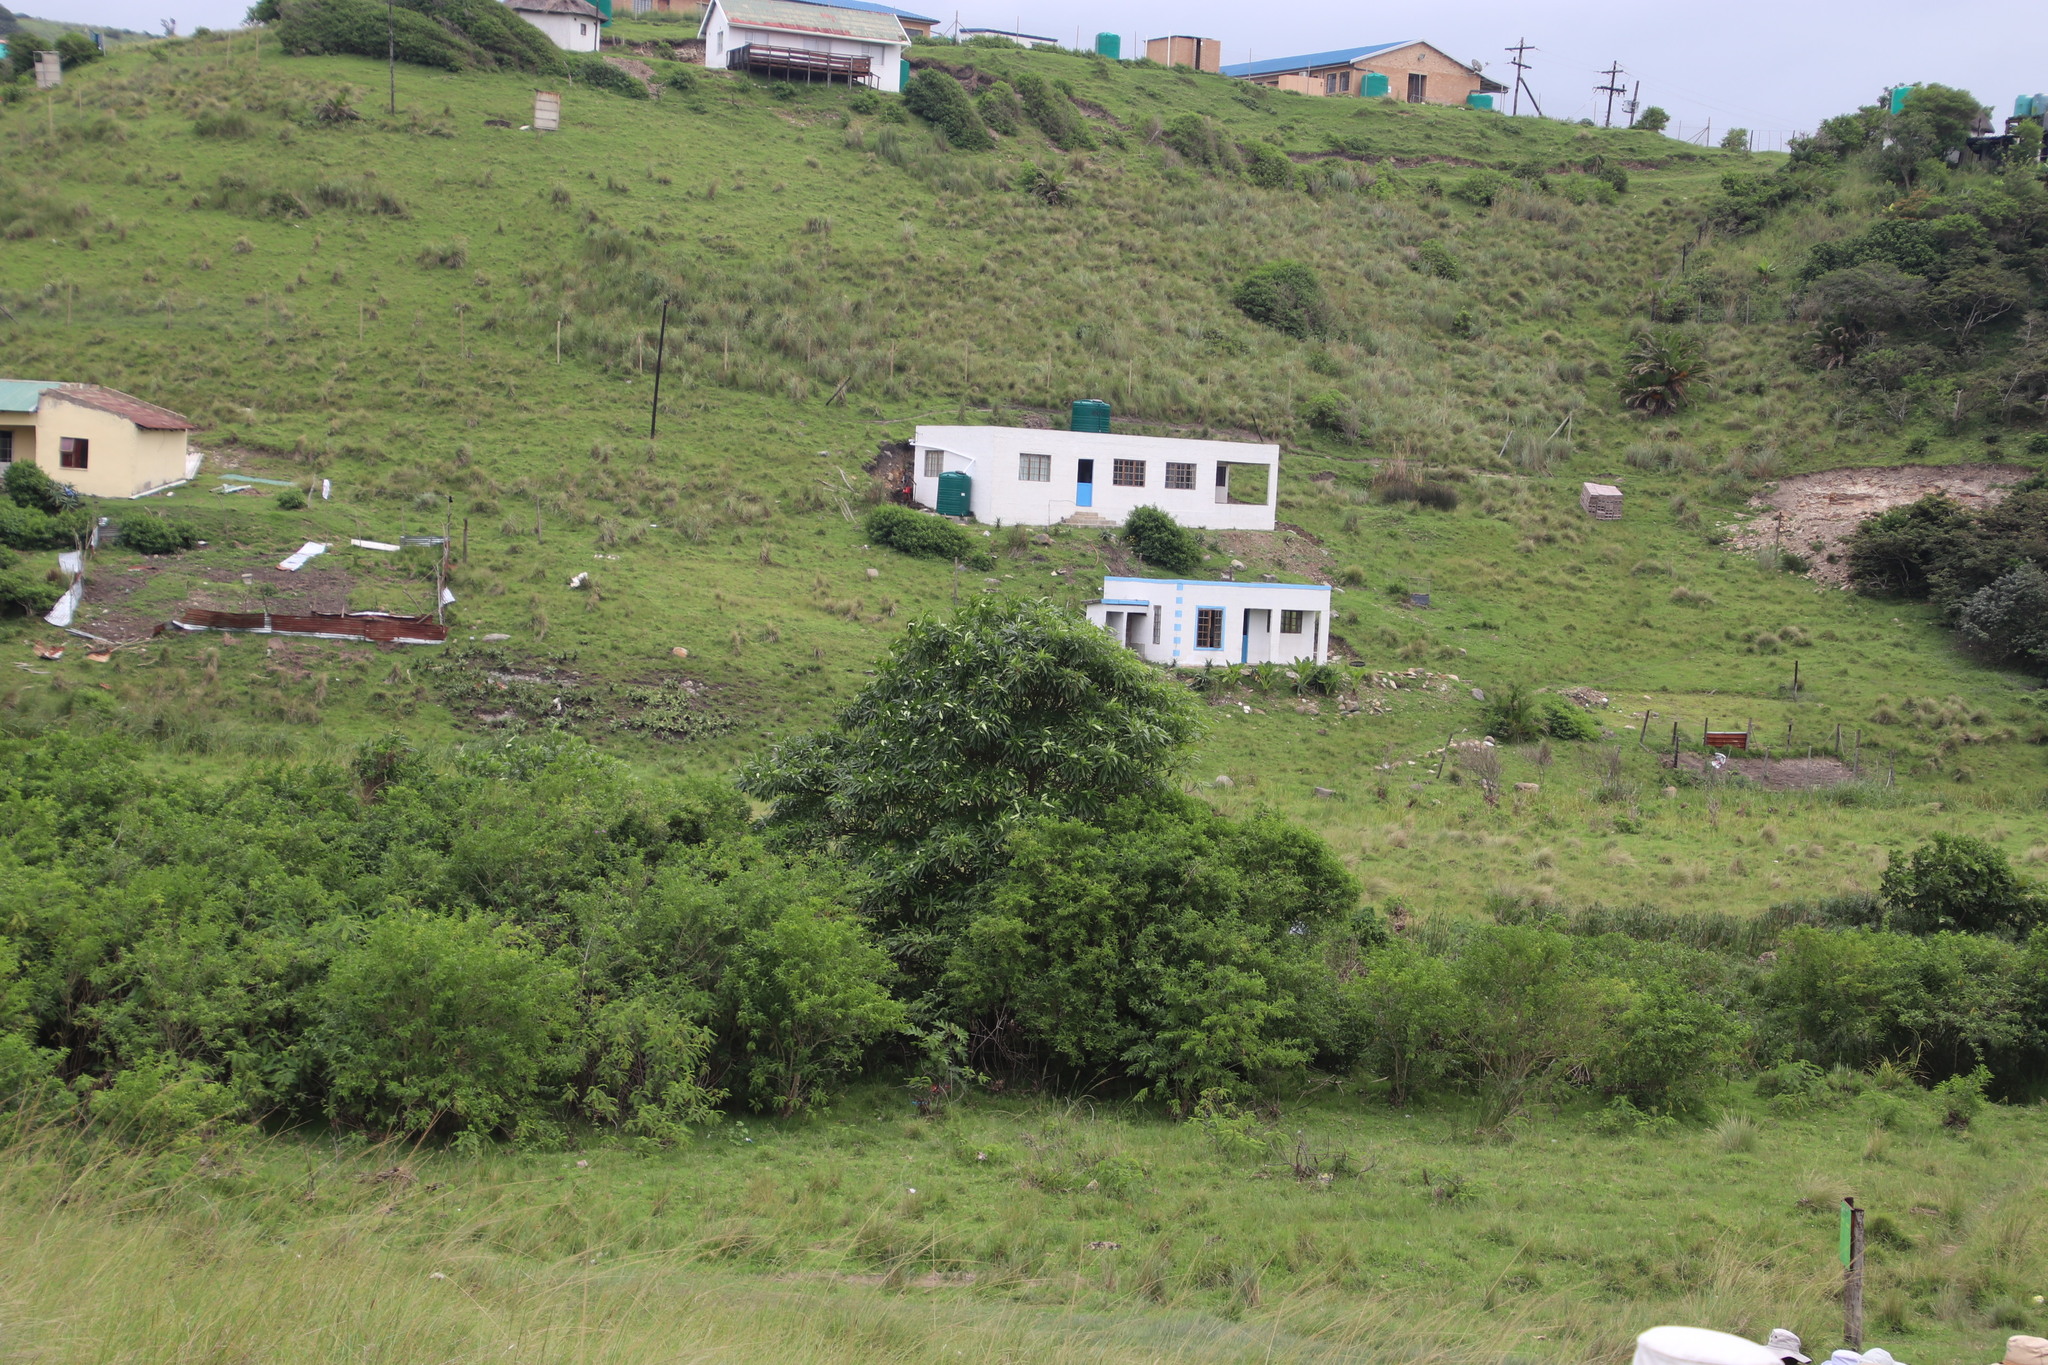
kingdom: Plantae
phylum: Tracheophyta
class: Magnoliopsida
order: Gentianales
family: Apocynaceae
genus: Rauvolfia
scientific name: Rauvolfia caffra
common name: Quininetree
